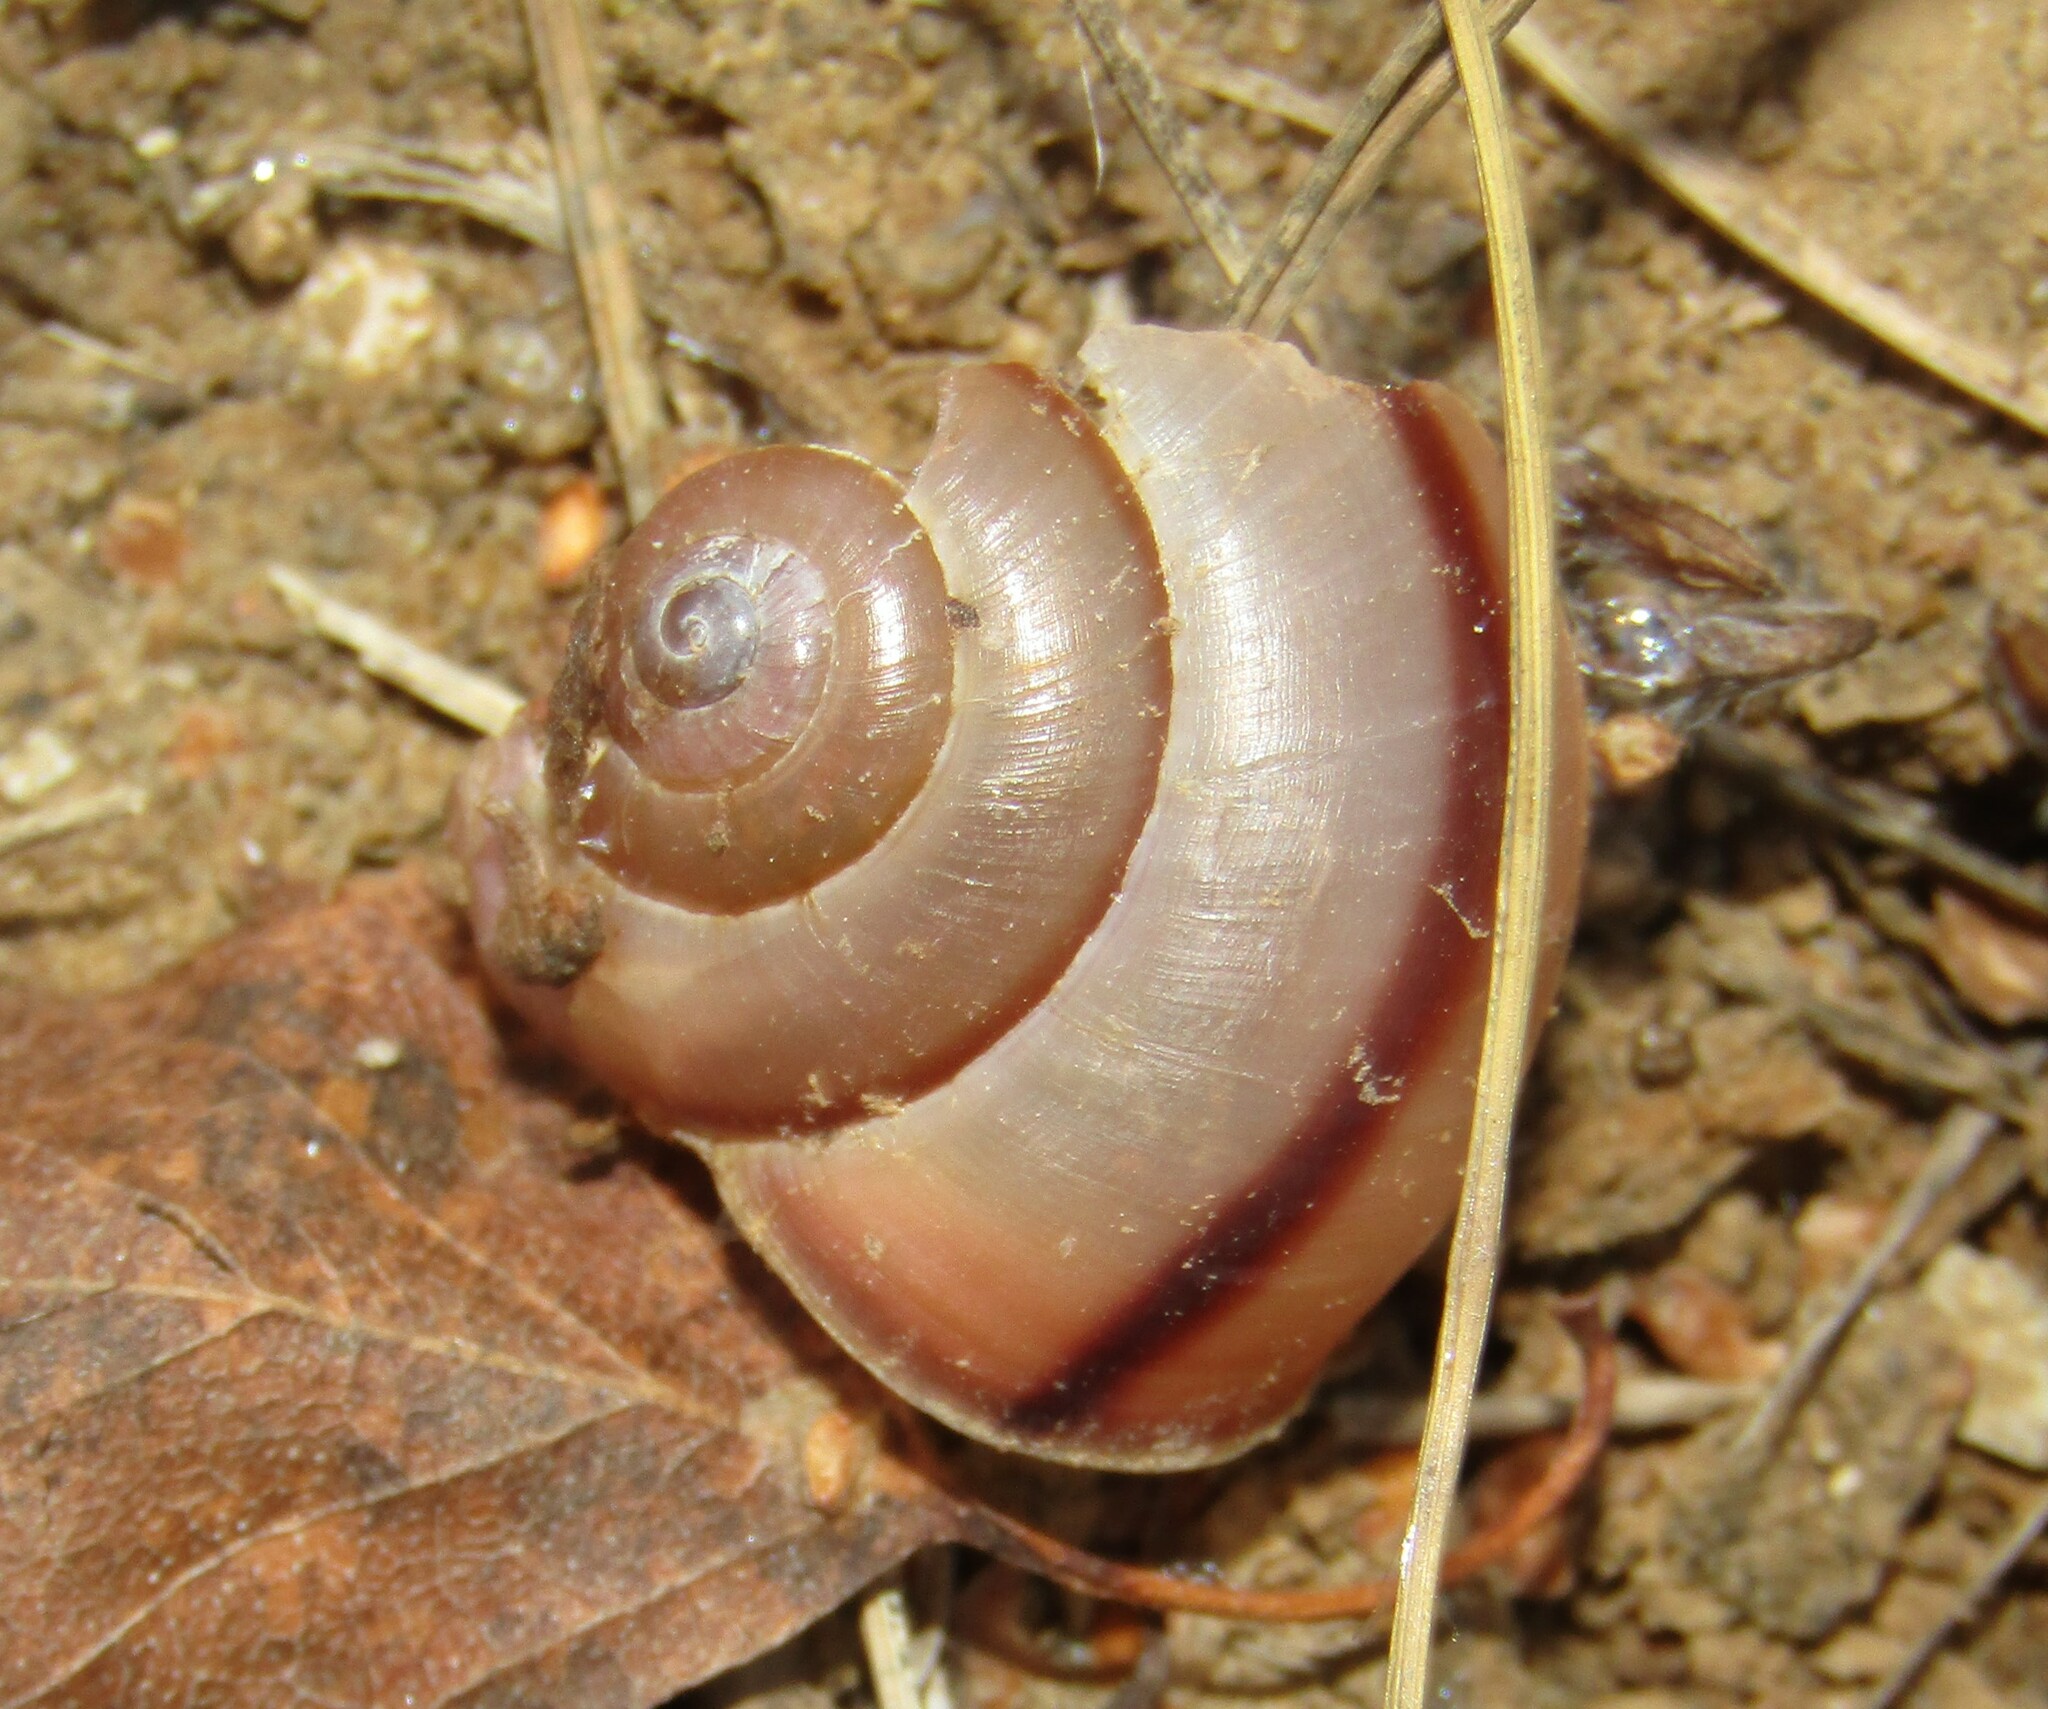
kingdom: Animalia
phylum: Mollusca
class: Gastropoda
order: Stylommatophora
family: Camaenidae
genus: Fruticicola
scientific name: Fruticicola fruticum
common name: Bush snail
